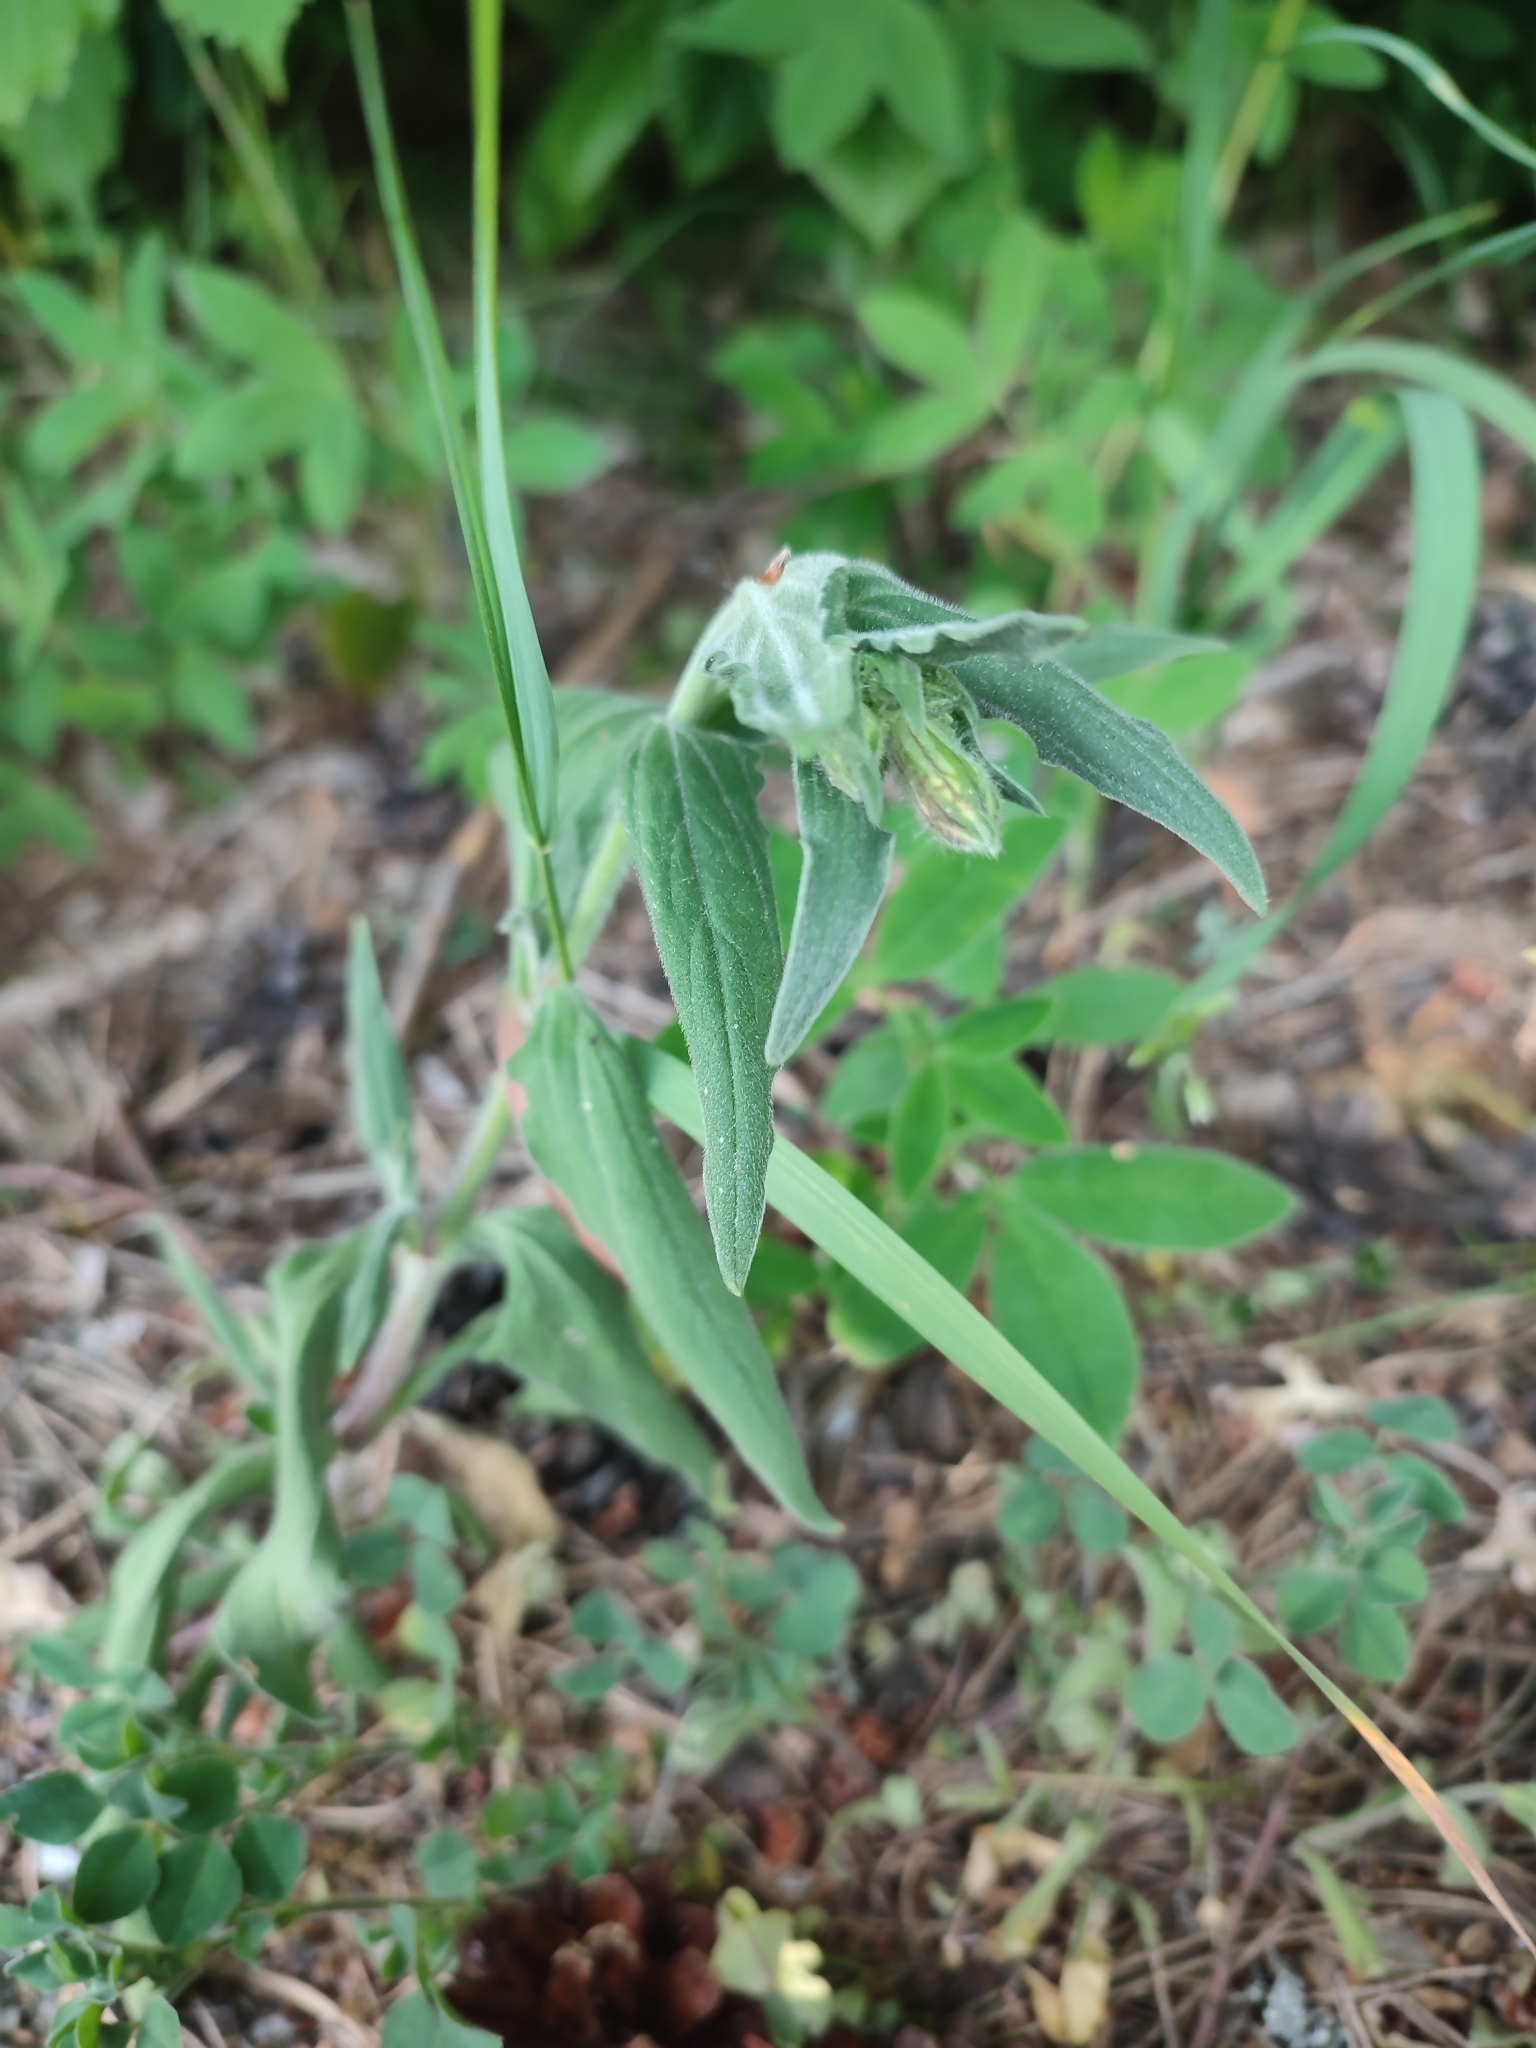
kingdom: Plantae
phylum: Tracheophyta
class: Magnoliopsida
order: Caryophyllales
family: Caryophyllaceae
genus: Silene
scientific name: Silene latifolia
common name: White campion
